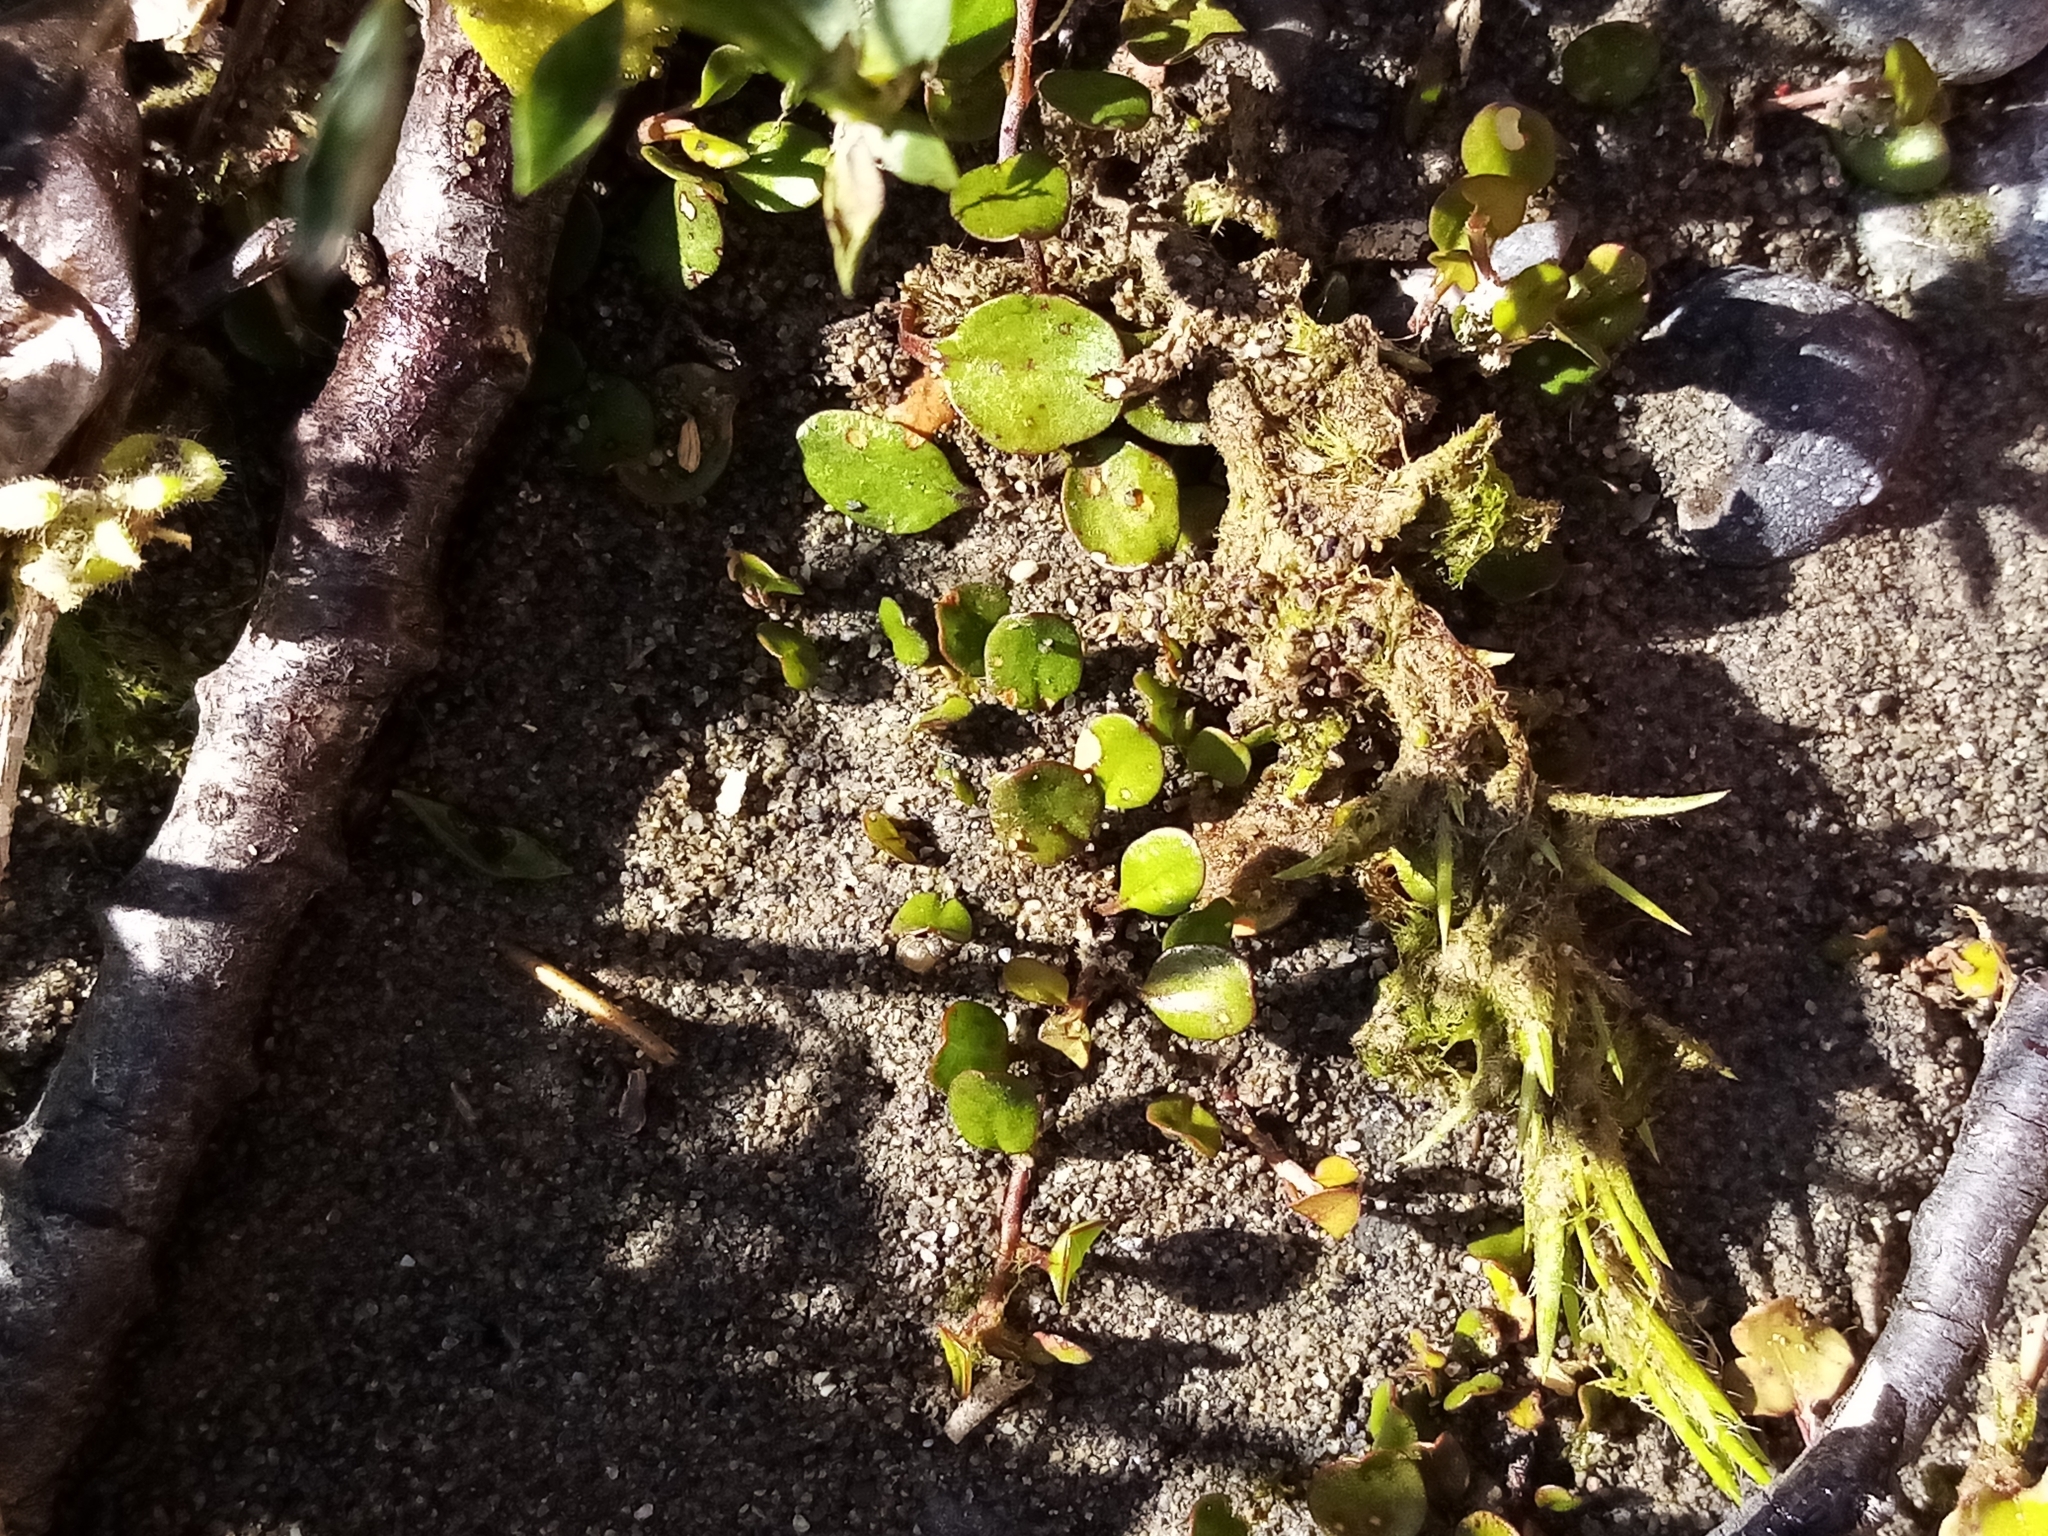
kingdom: Plantae
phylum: Tracheophyta
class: Magnoliopsida
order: Caryophyllales
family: Polygonaceae
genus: Muehlenbeckia
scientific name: Muehlenbeckia axillaris
